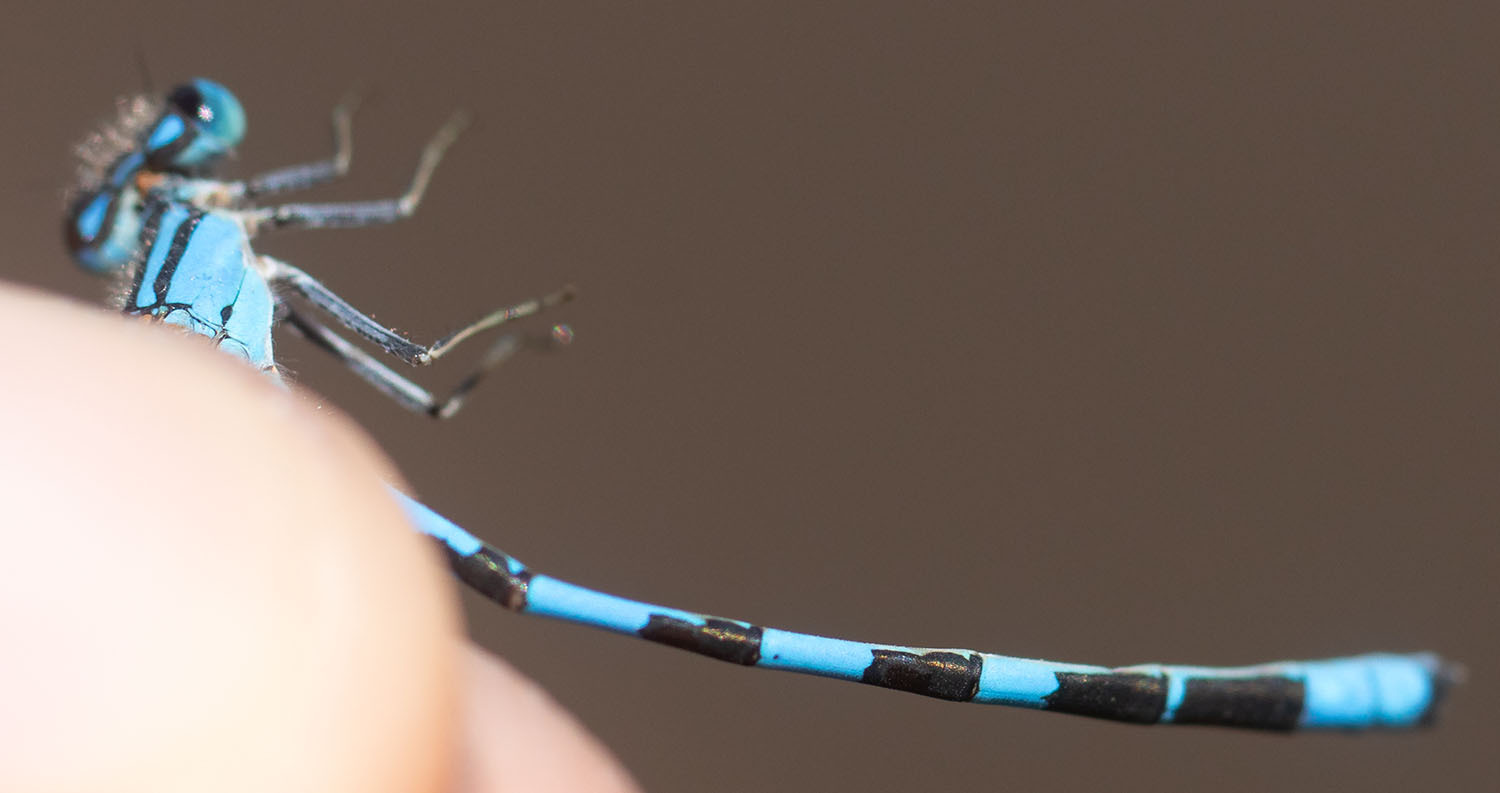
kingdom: Animalia
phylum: Arthropoda
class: Insecta
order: Odonata
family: Coenagrionidae
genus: Enallagma
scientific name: Enallagma carunculatum
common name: Tule bluet
